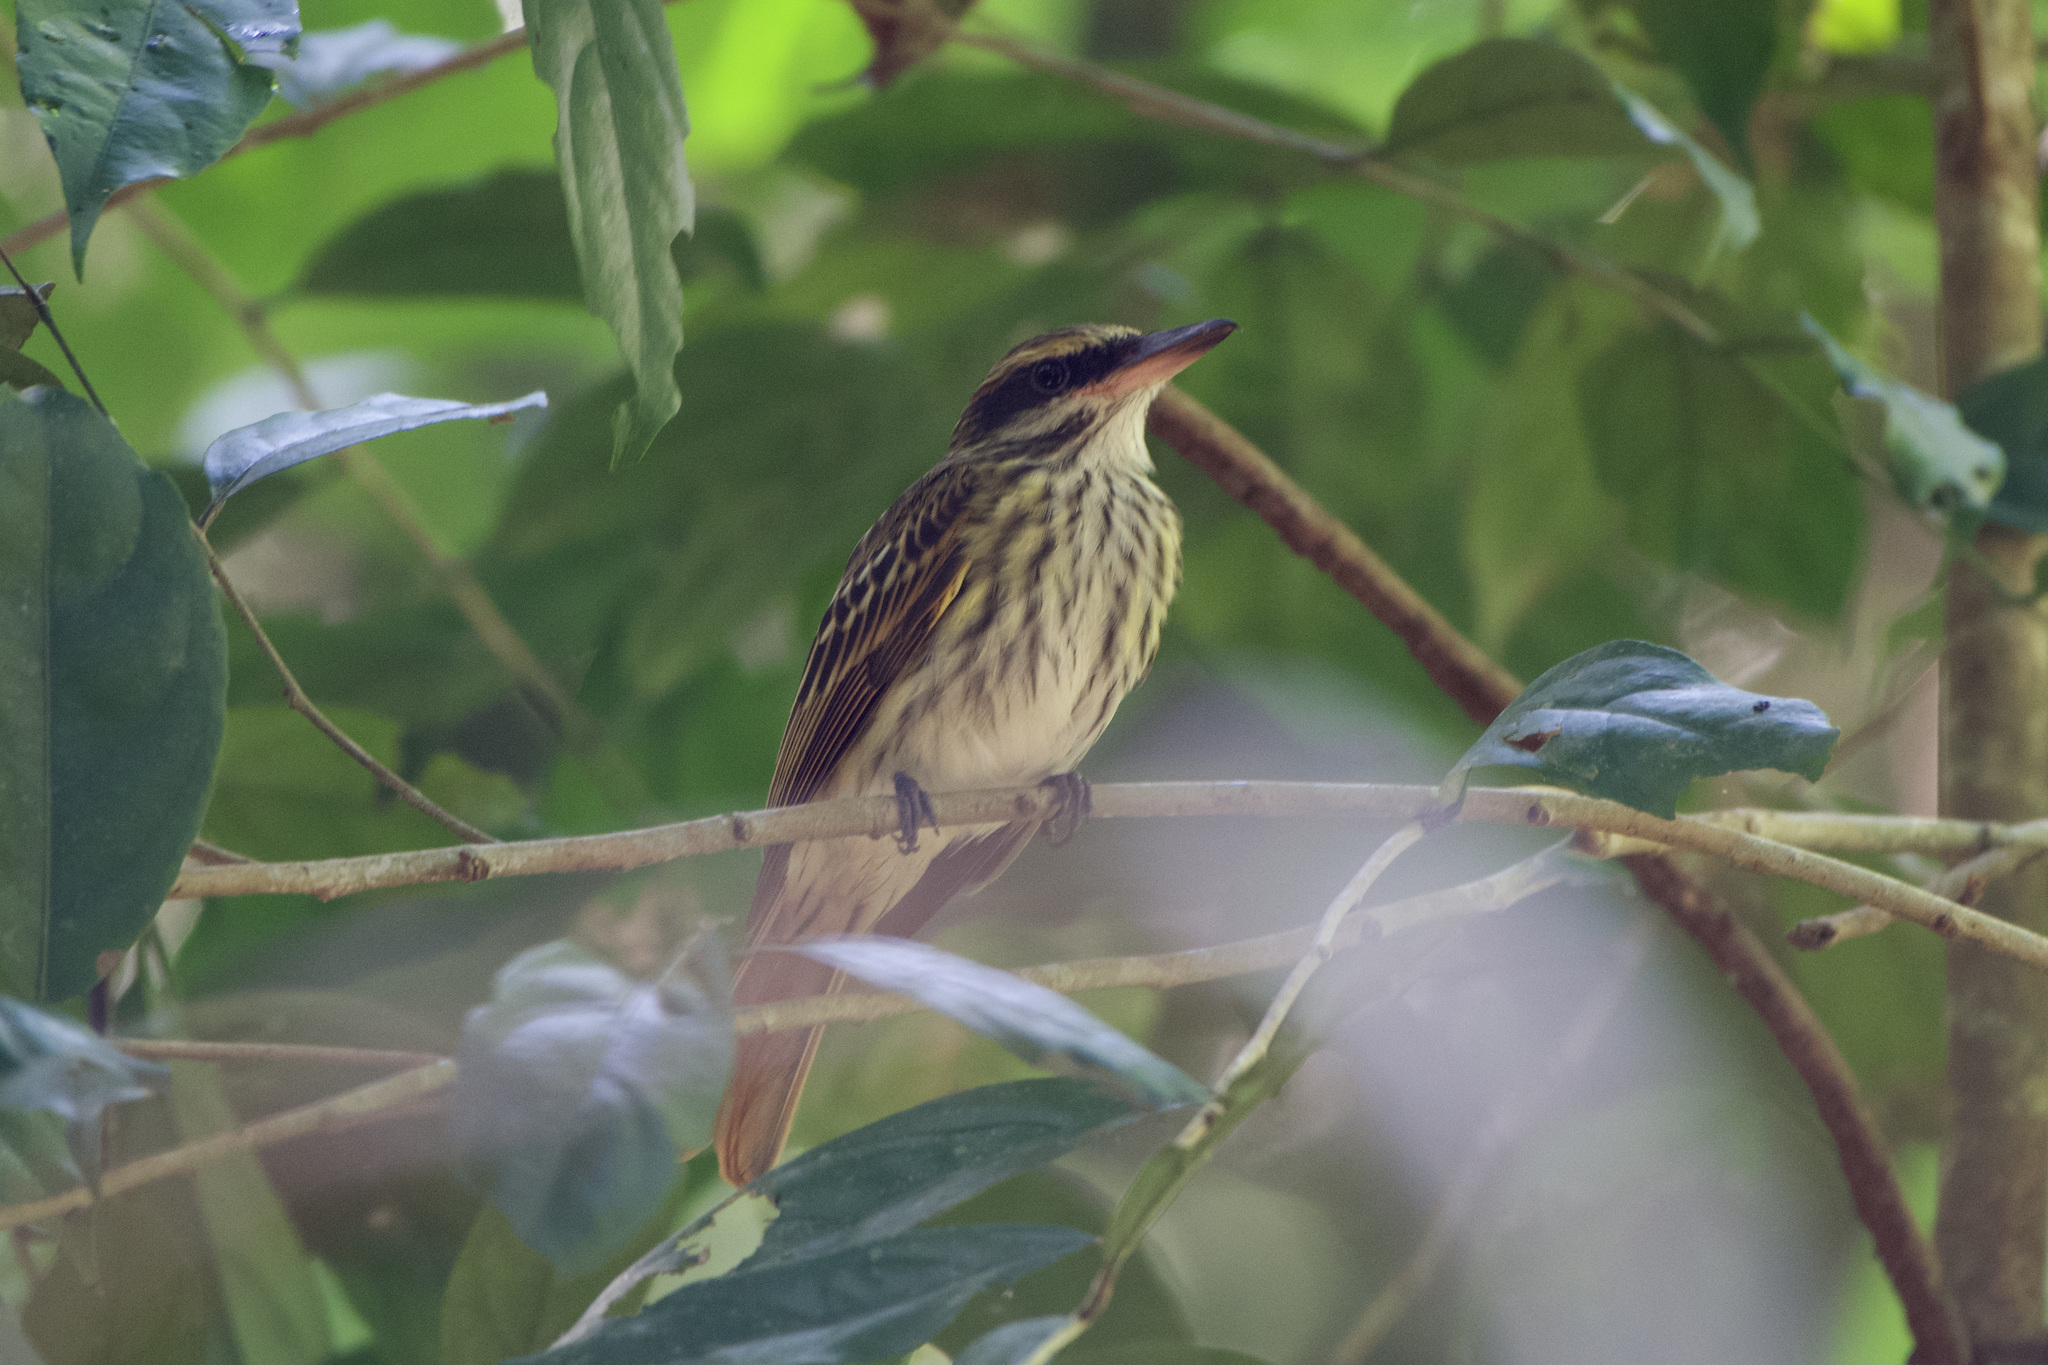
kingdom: Animalia
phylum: Chordata
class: Aves
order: Passeriformes
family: Tyrannidae
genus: Myiodynastes
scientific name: Myiodynastes maculatus
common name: Streaked flycatcher
